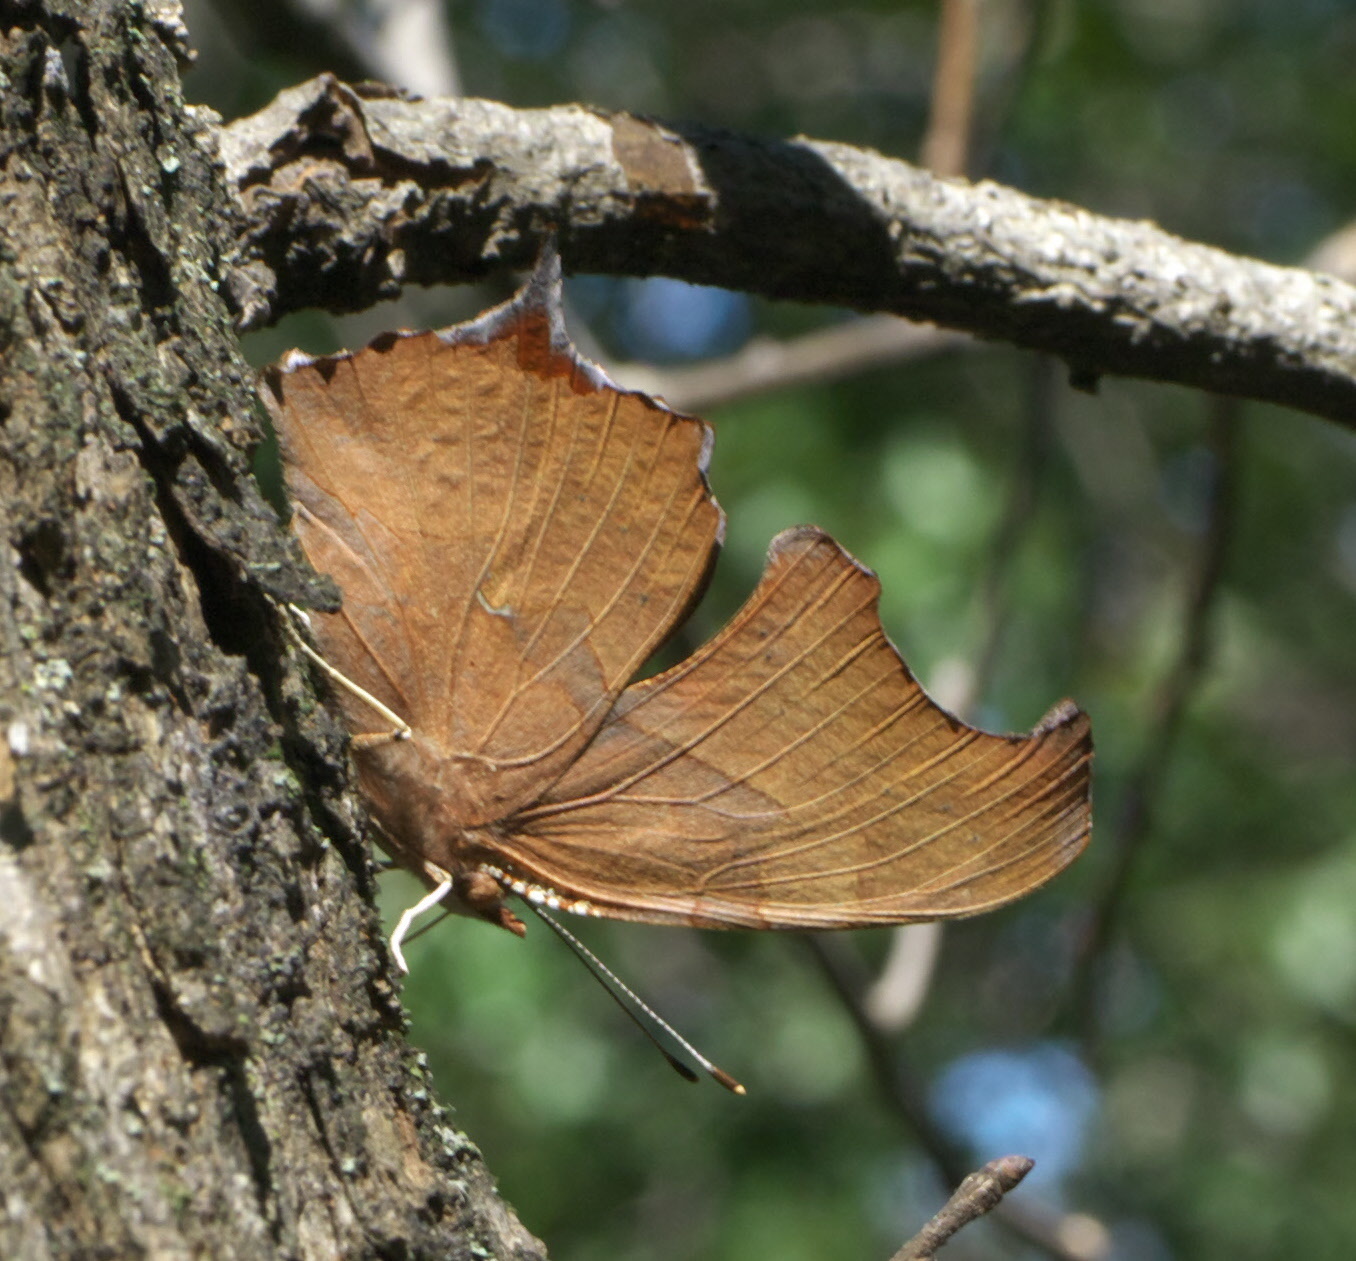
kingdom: Animalia
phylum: Arthropoda
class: Insecta
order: Lepidoptera
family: Nymphalidae
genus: Polygonia
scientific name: Polygonia interrogationis
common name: Question mark
